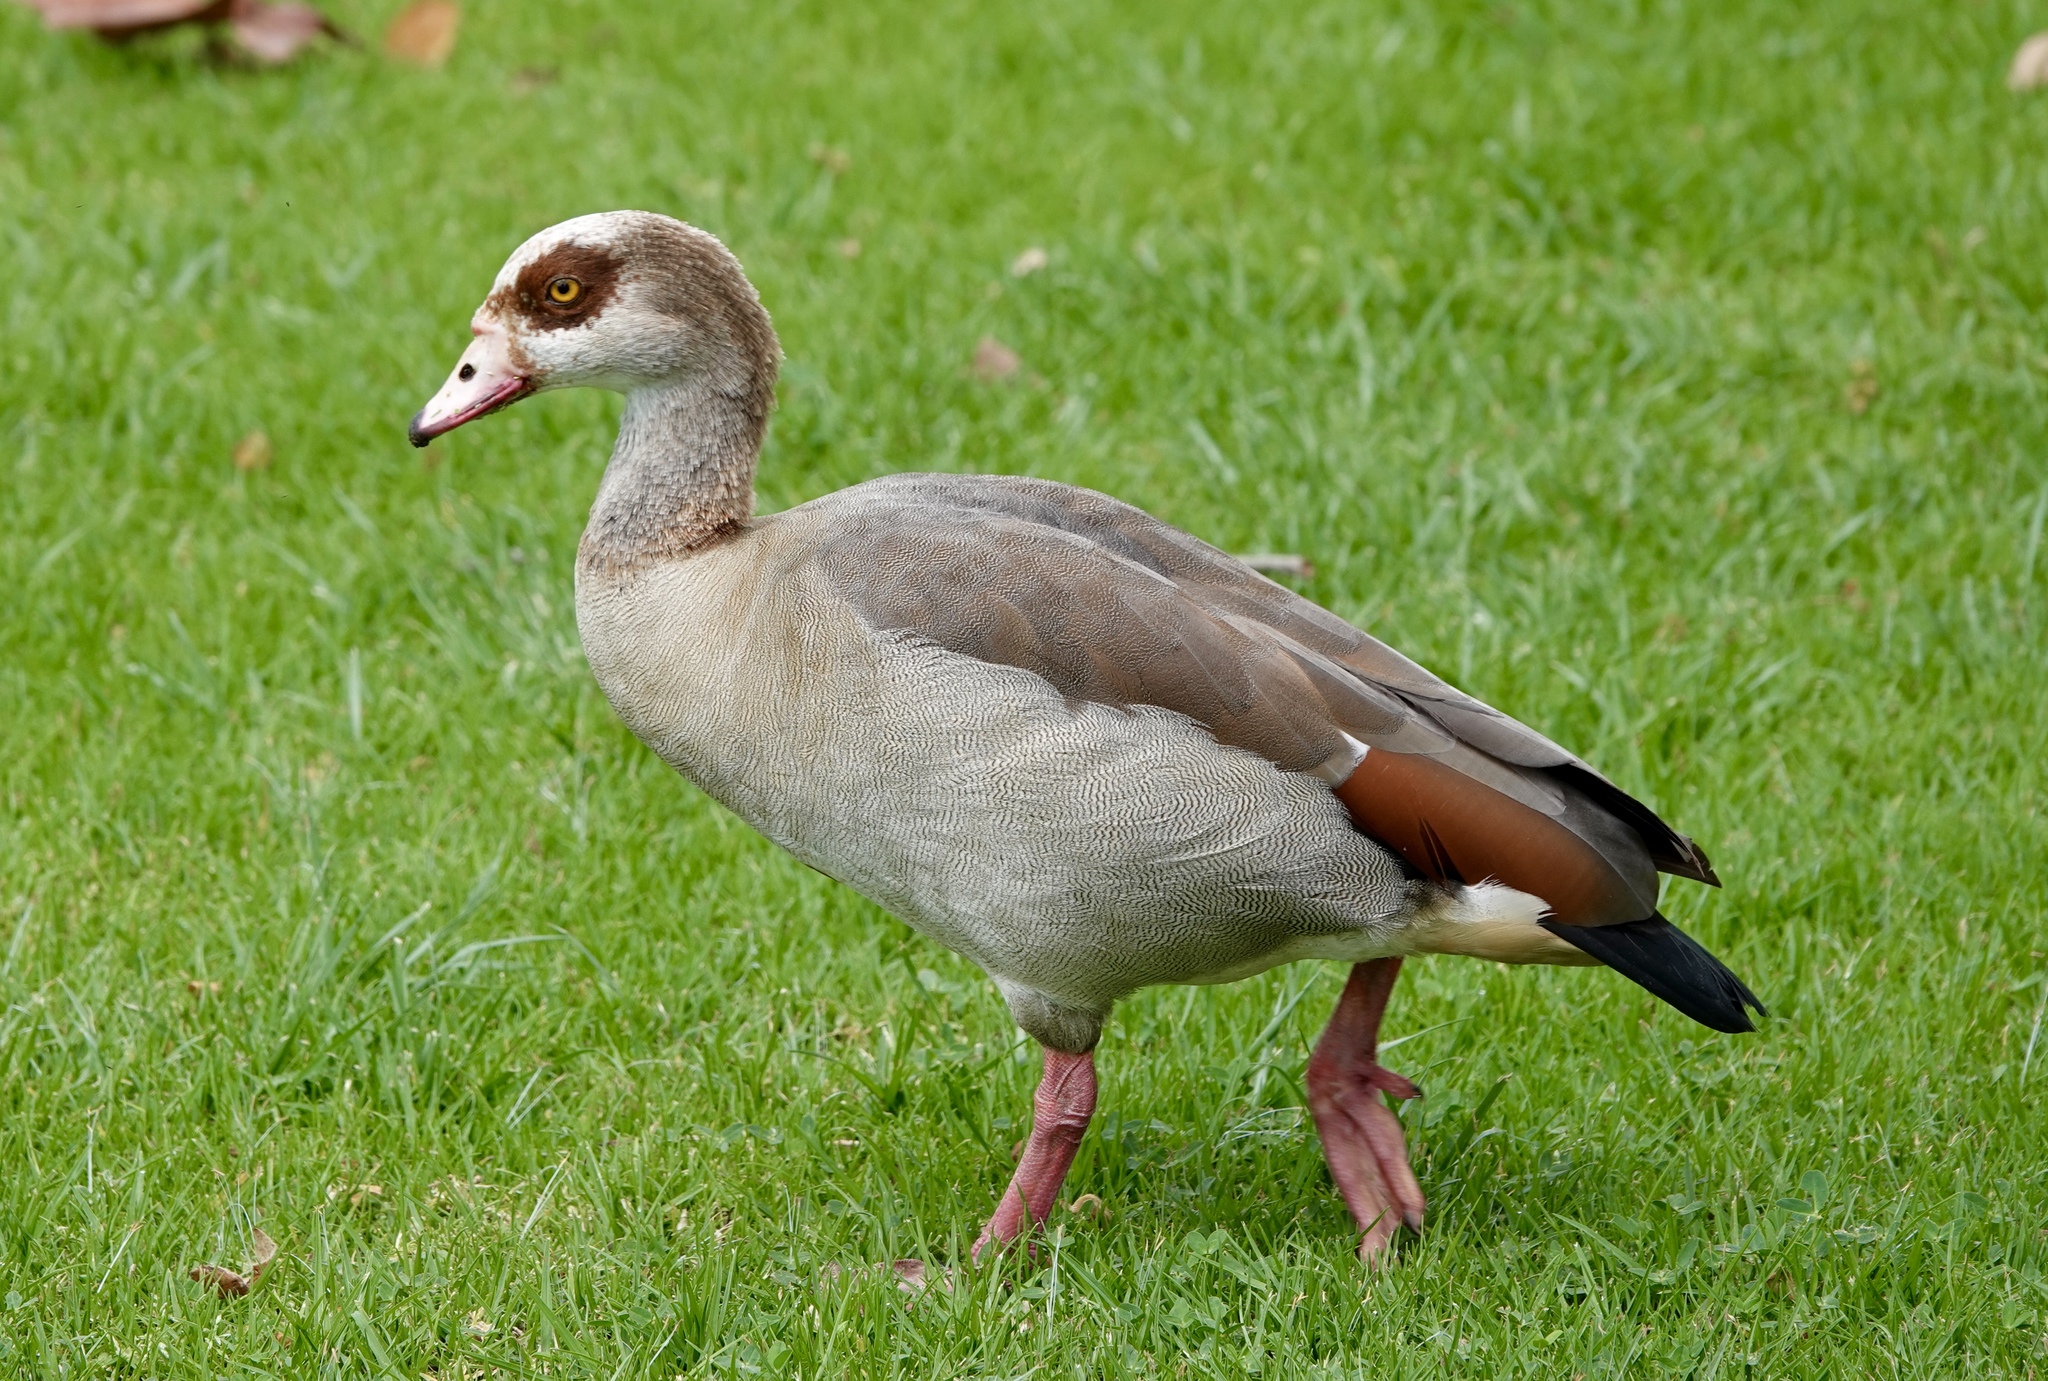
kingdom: Animalia
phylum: Chordata
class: Aves
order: Anseriformes
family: Anatidae
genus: Alopochen
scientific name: Alopochen aegyptiaca
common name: Egyptian goose
